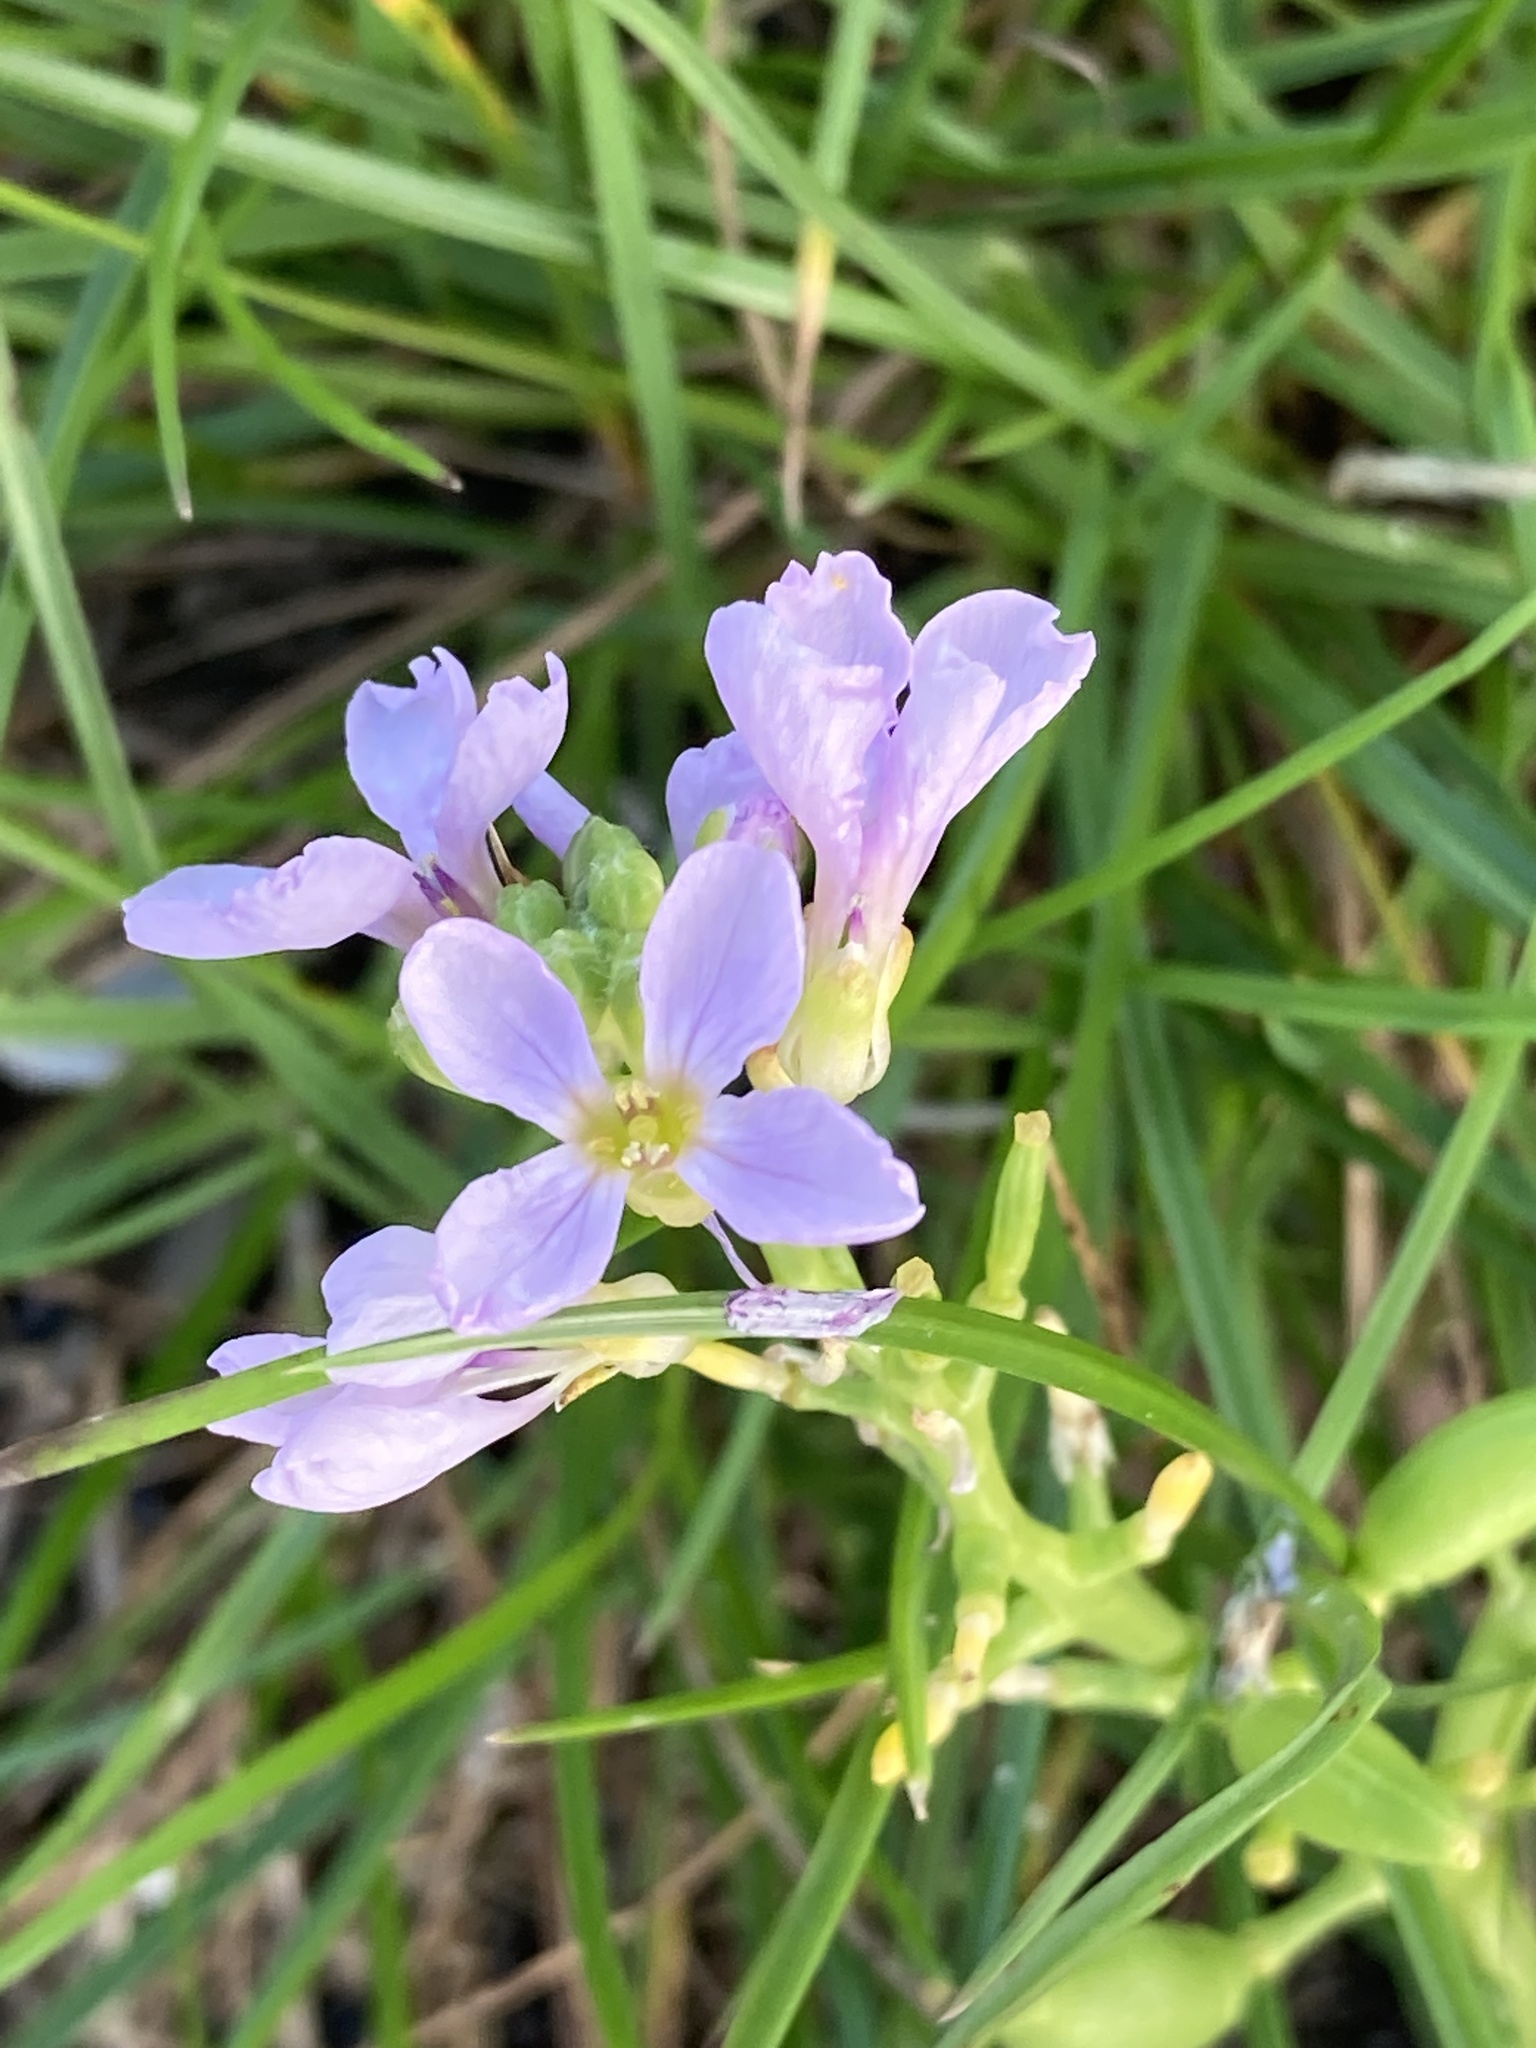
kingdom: Plantae
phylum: Tracheophyta
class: Magnoliopsida
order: Brassicales
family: Brassicaceae
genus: Cakile
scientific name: Cakile maritima
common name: Sea rocket
